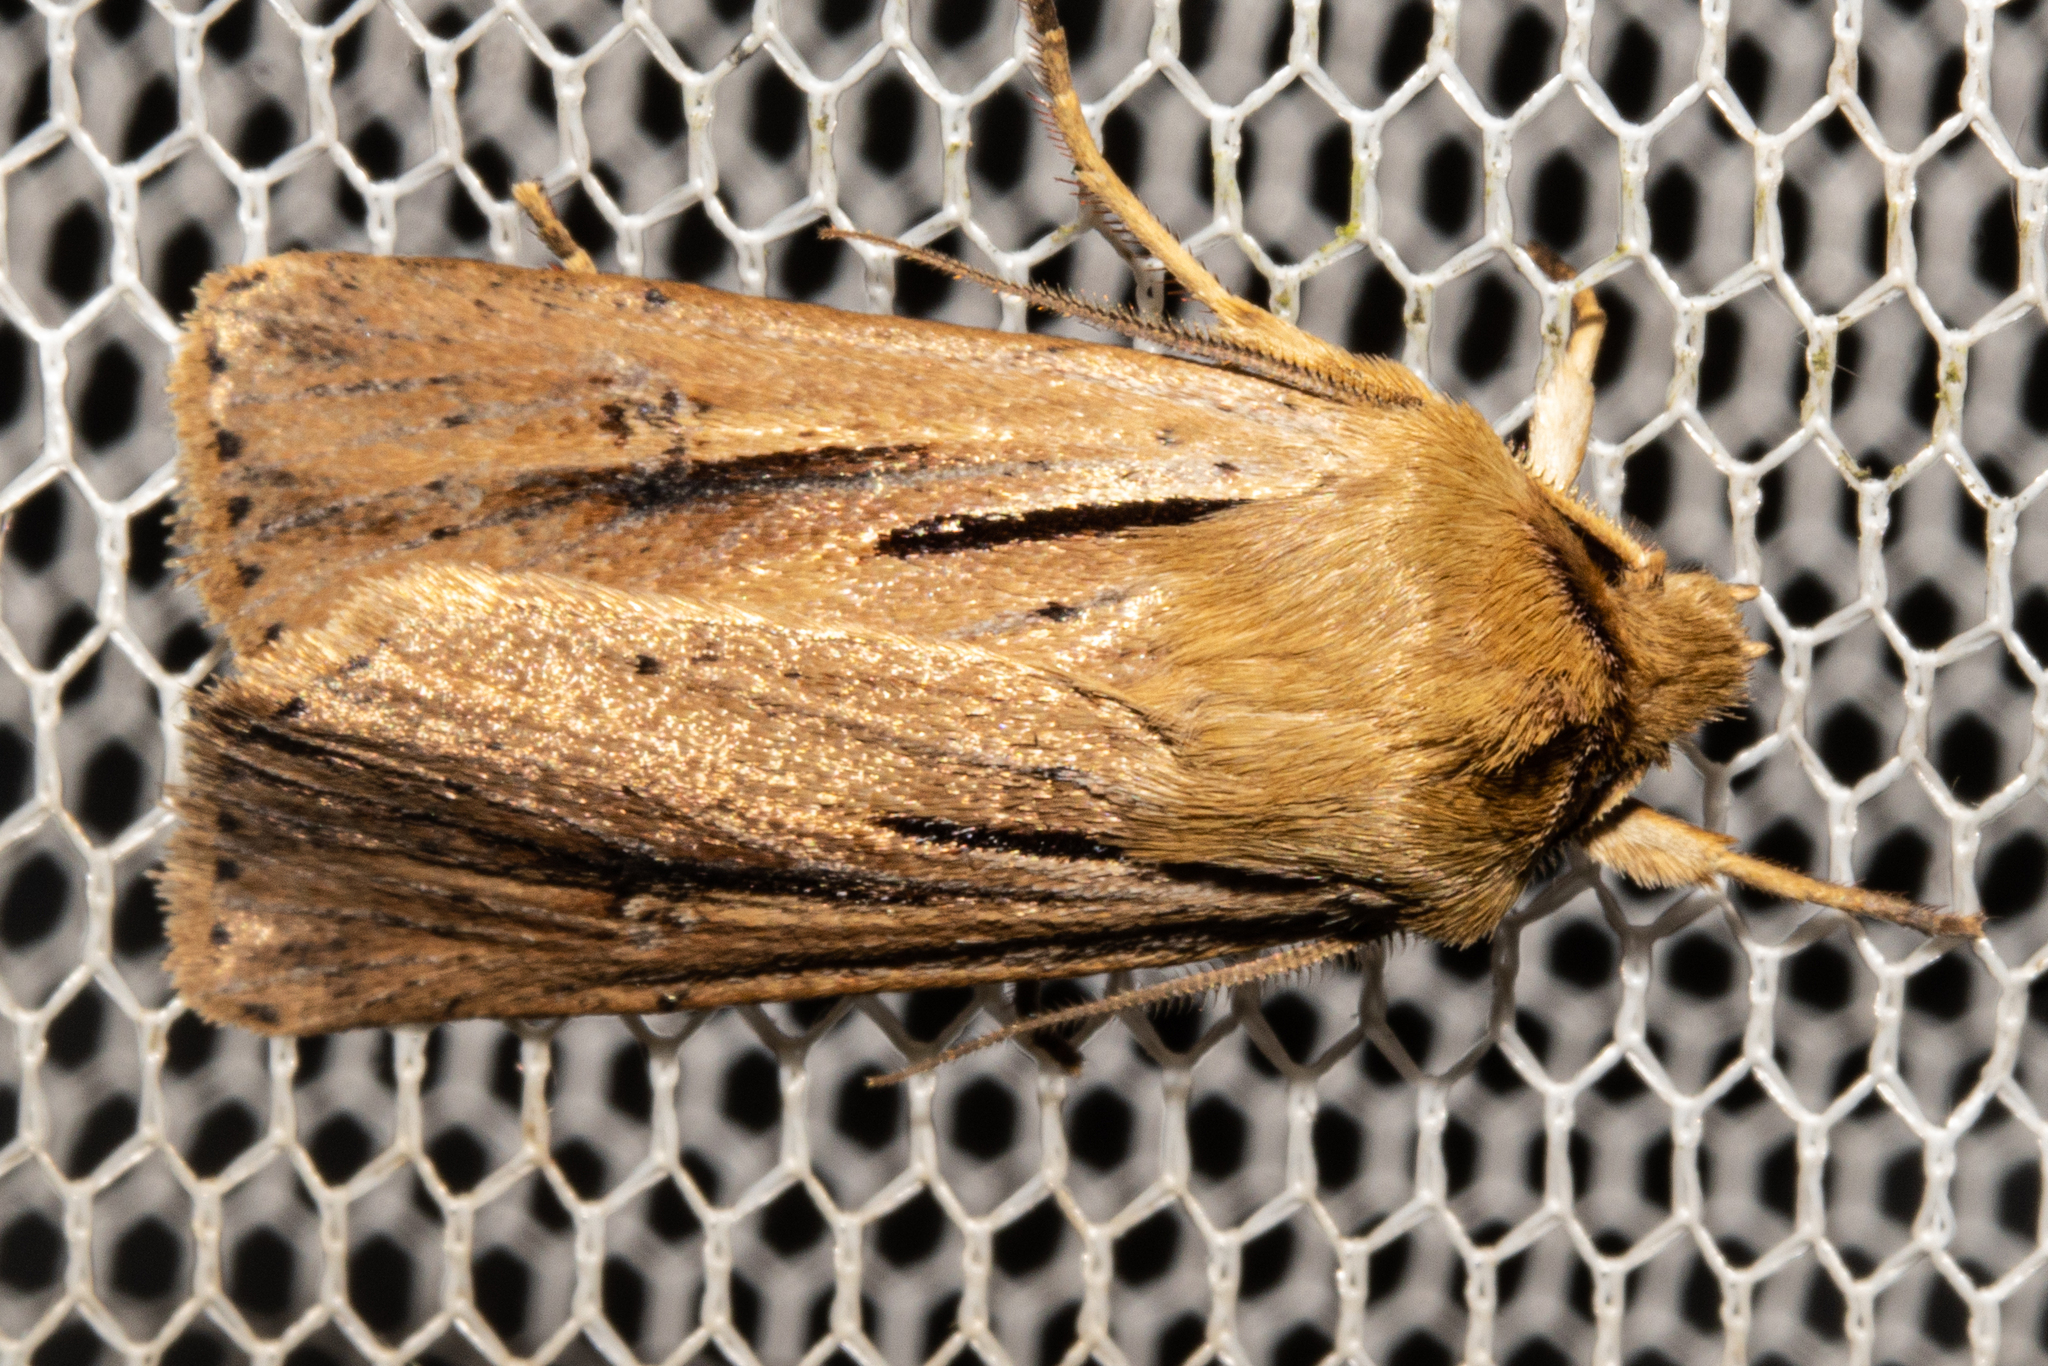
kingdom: Animalia
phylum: Arthropoda
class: Insecta
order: Lepidoptera
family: Noctuidae
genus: Ichneutica
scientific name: Ichneutica propria
